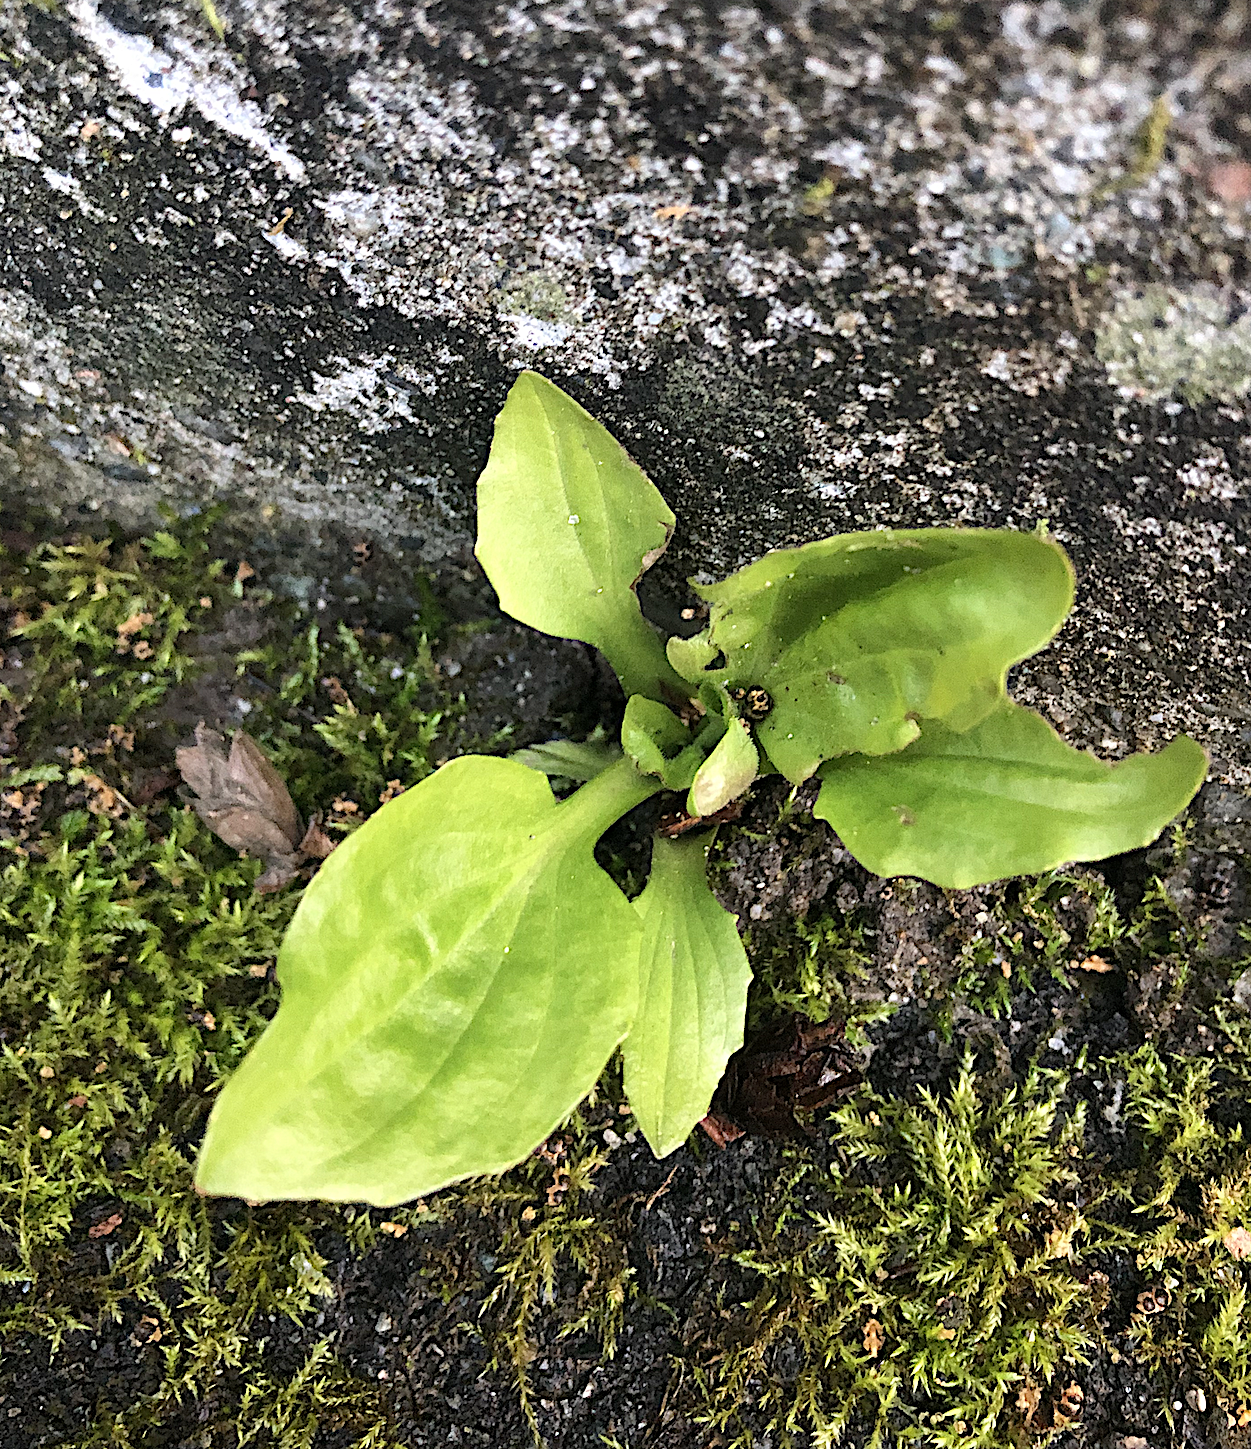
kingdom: Plantae
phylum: Tracheophyta
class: Magnoliopsida
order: Lamiales
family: Plantaginaceae
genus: Plantago
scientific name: Plantago major
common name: Common plantain
